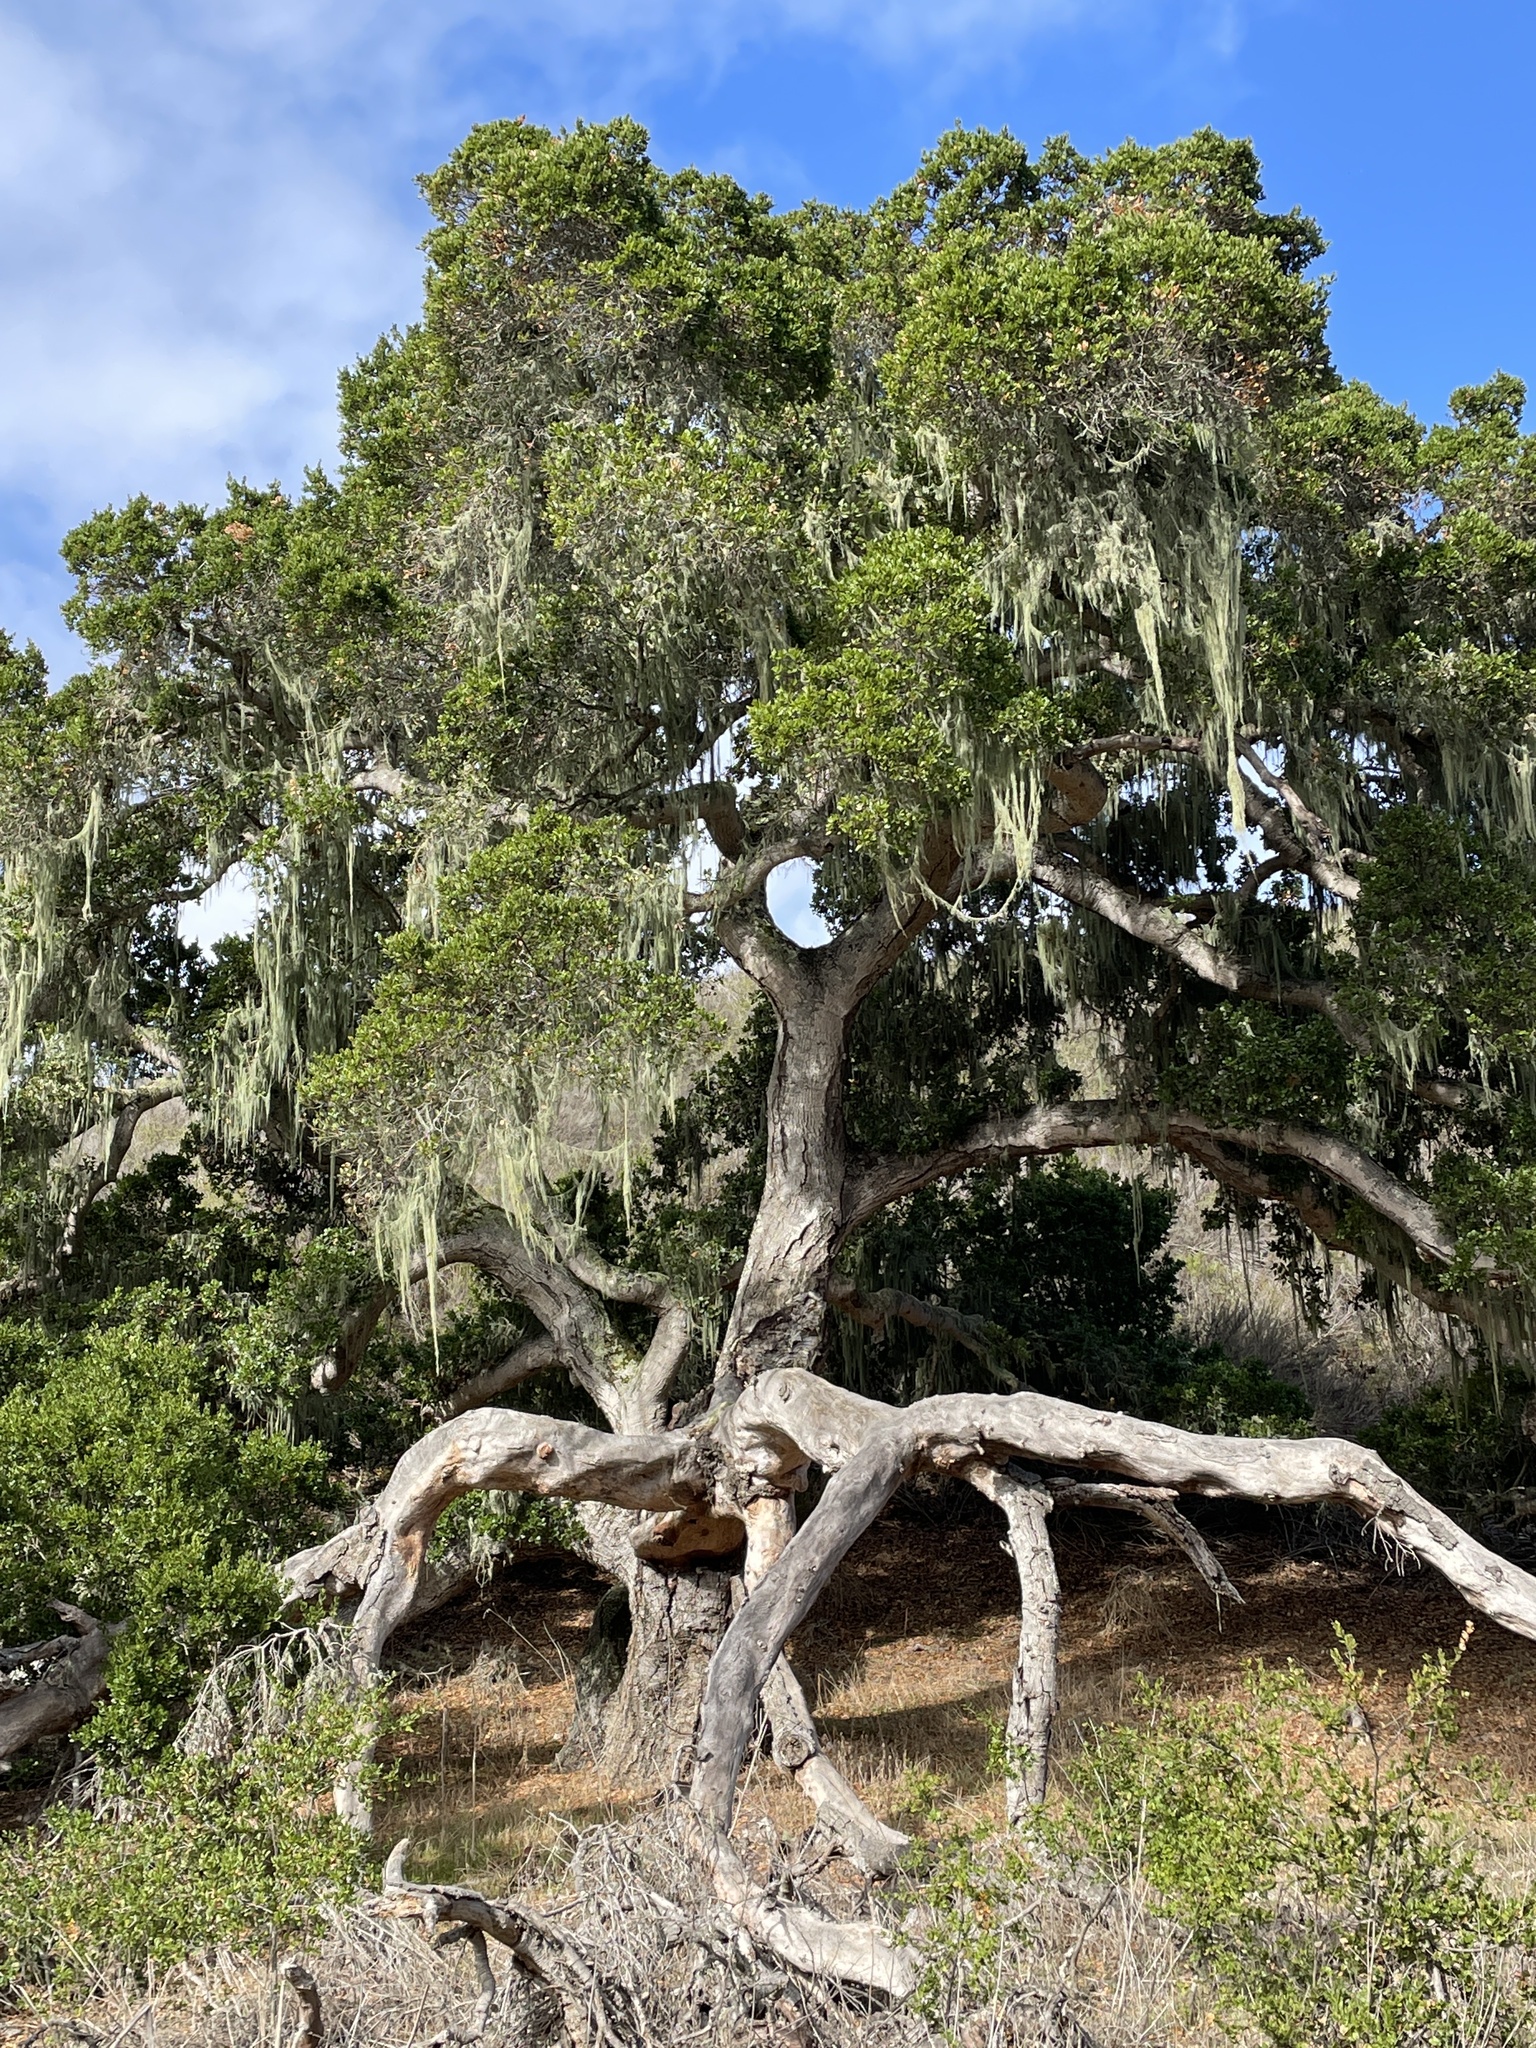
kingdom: Plantae
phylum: Tracheophyta
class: Magnoliopsida
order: Fagales
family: Fagaceae
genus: Quercus
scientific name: Quercus agrifolia
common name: California live oak
